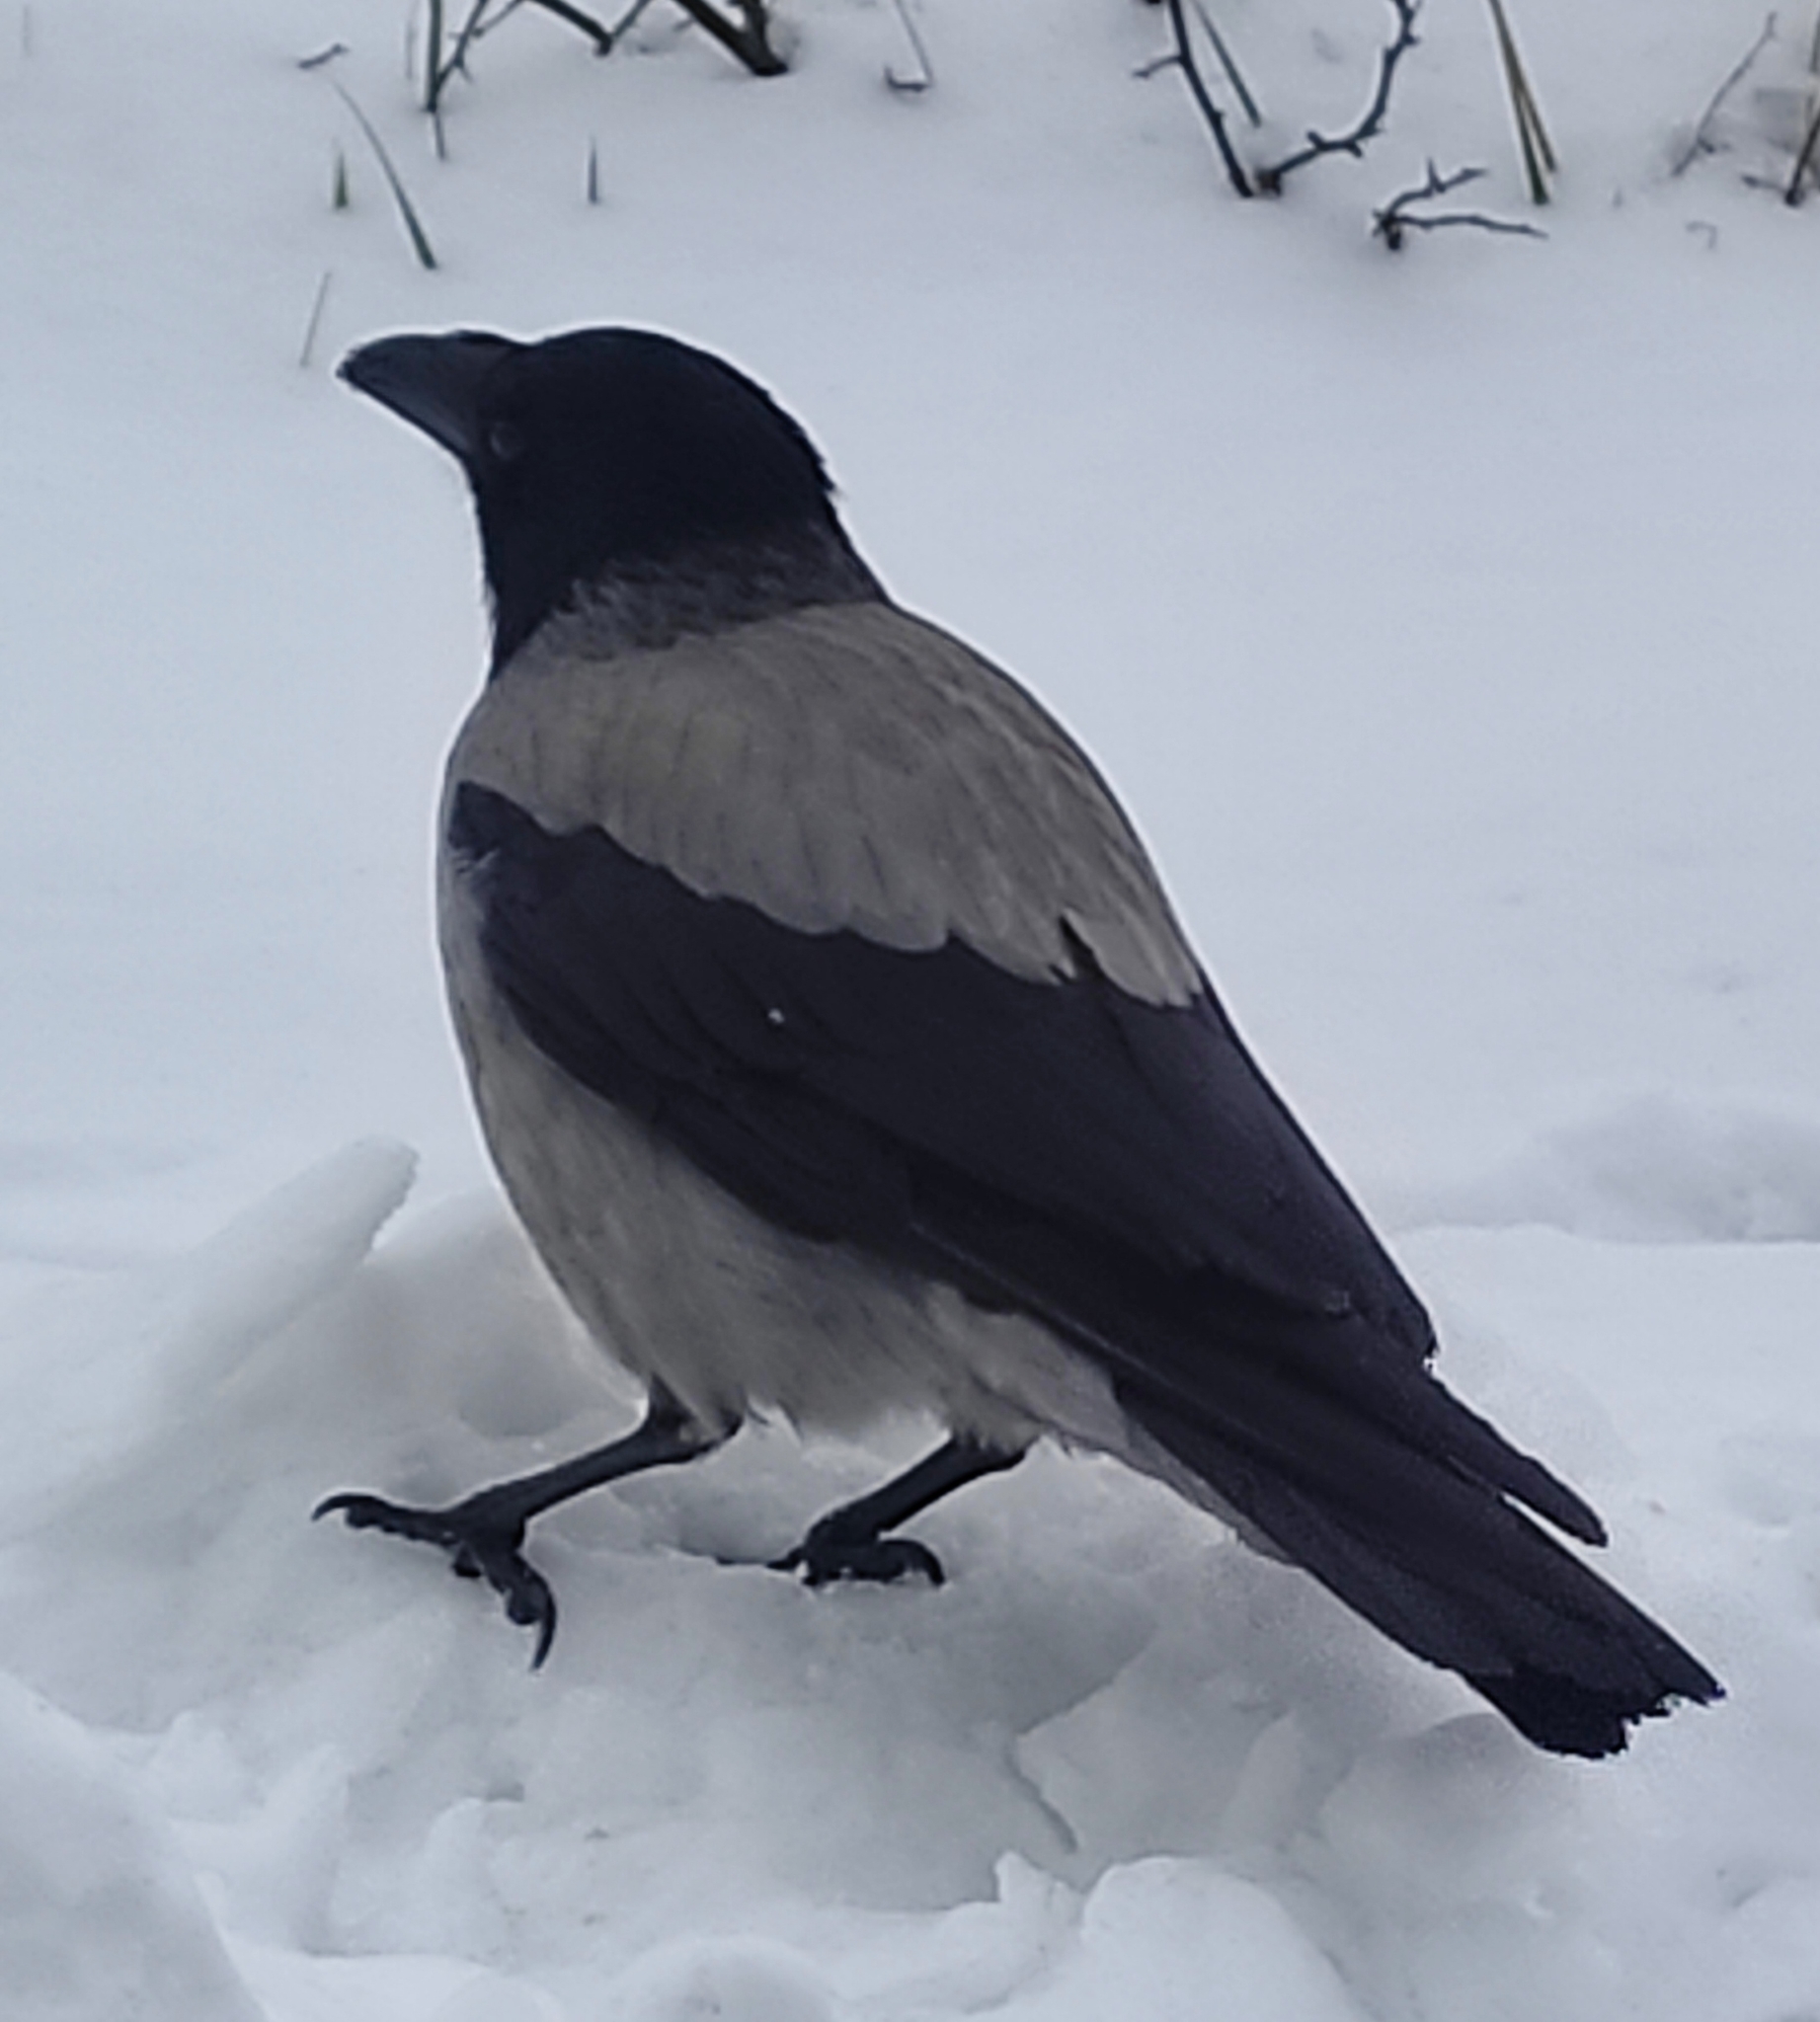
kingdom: Animalia
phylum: Chordata
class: Aves
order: Passeriformes
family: Corvidae
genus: Corvus
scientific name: Corvus cornix
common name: Hooded crow
